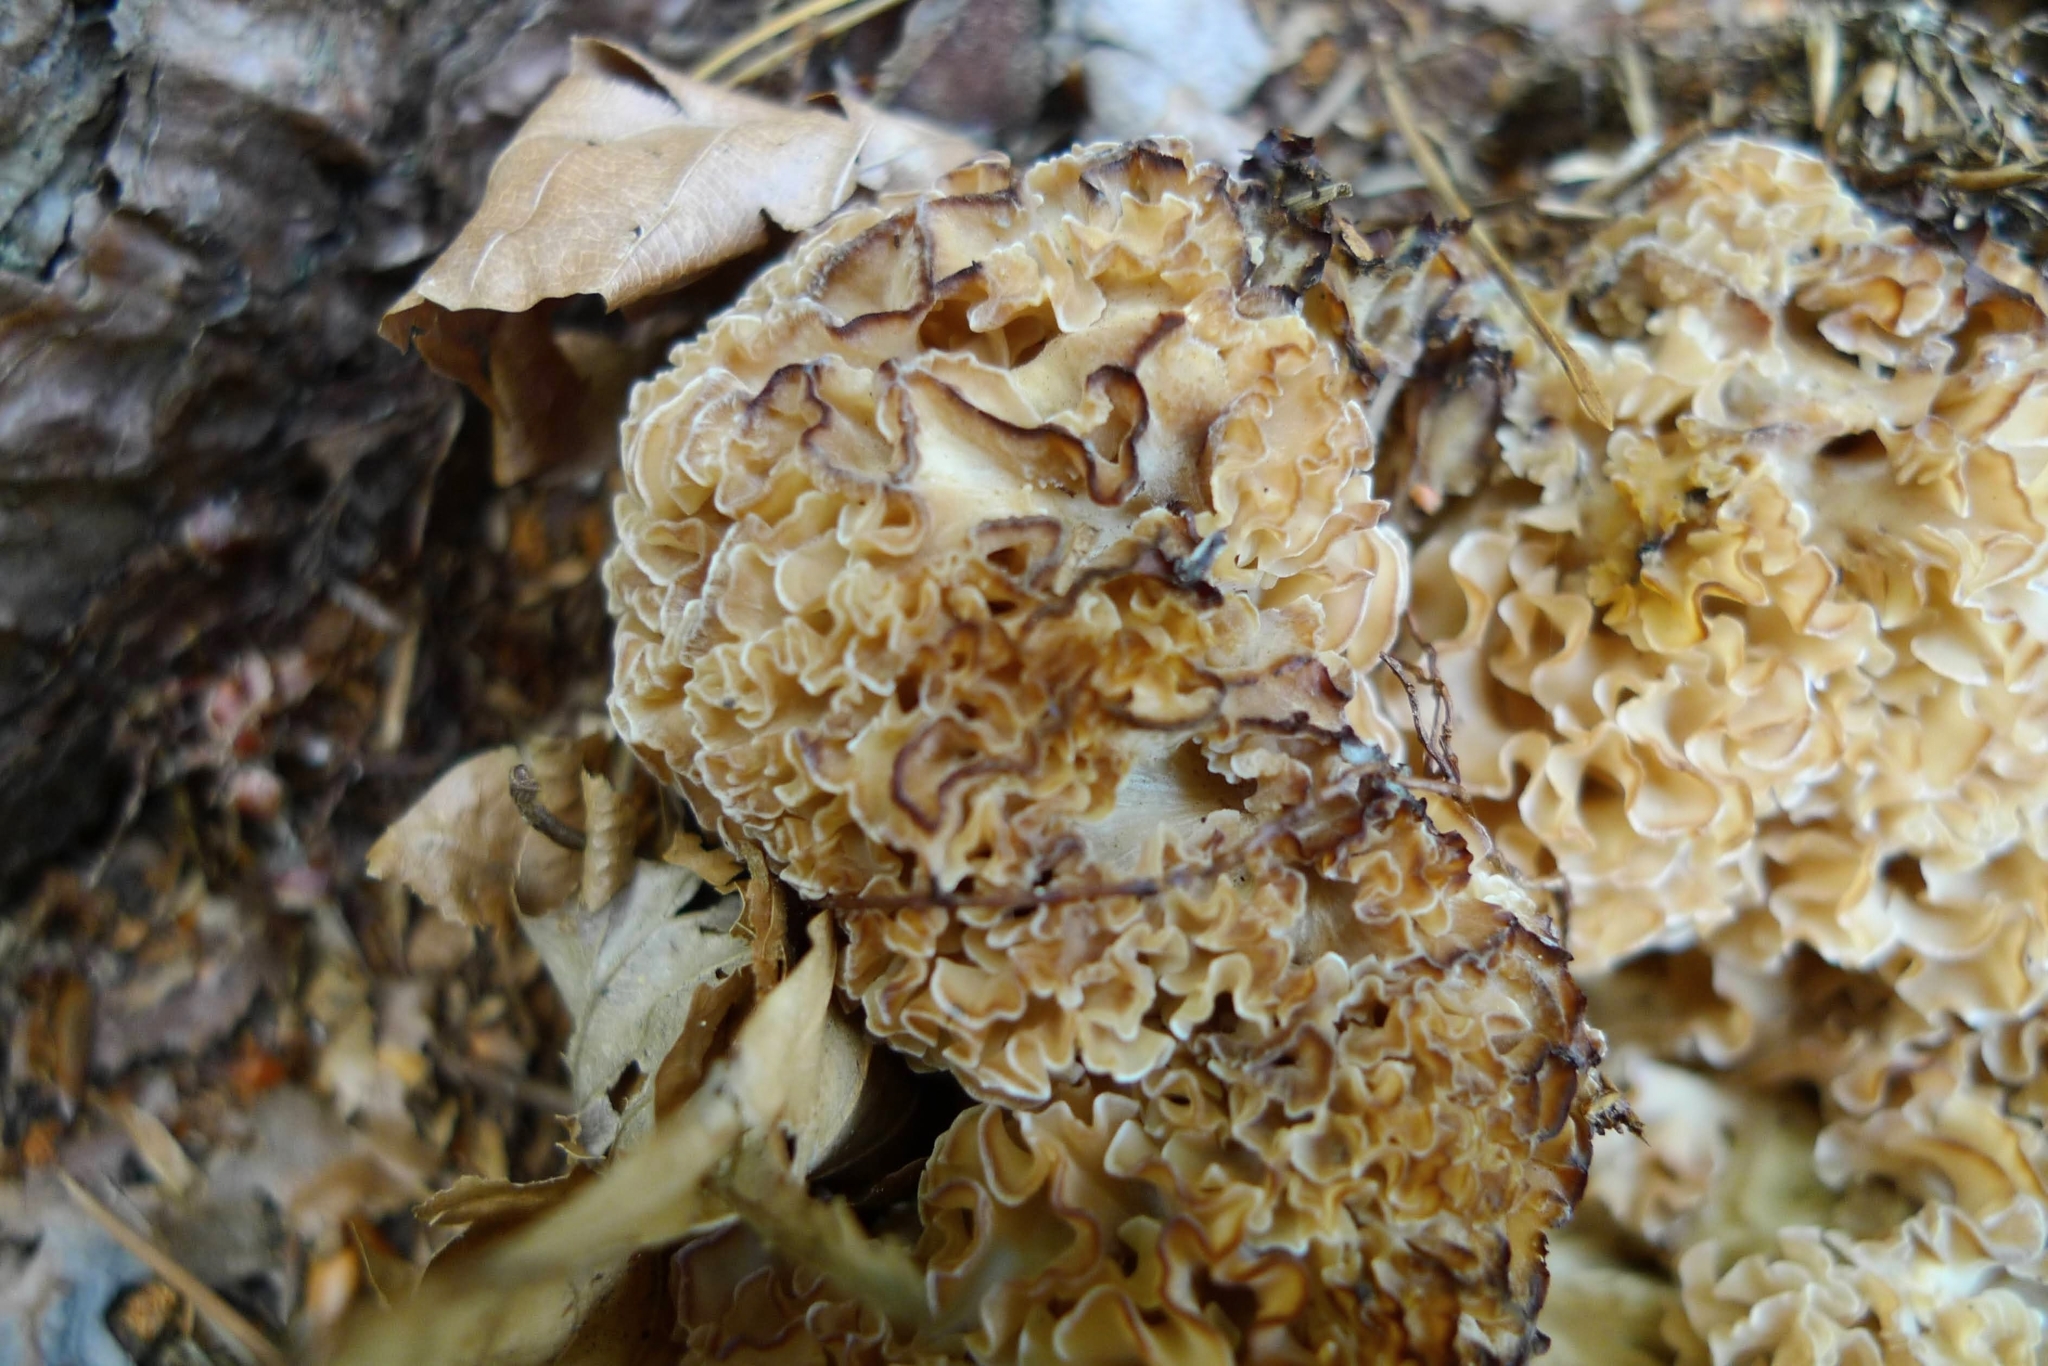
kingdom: Fungi
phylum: Basidiomycota
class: Agaricomycetes
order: Polyporales
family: Sparassidaceae
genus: Sparassis
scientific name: Sparassis crispa
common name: Brain fungus
